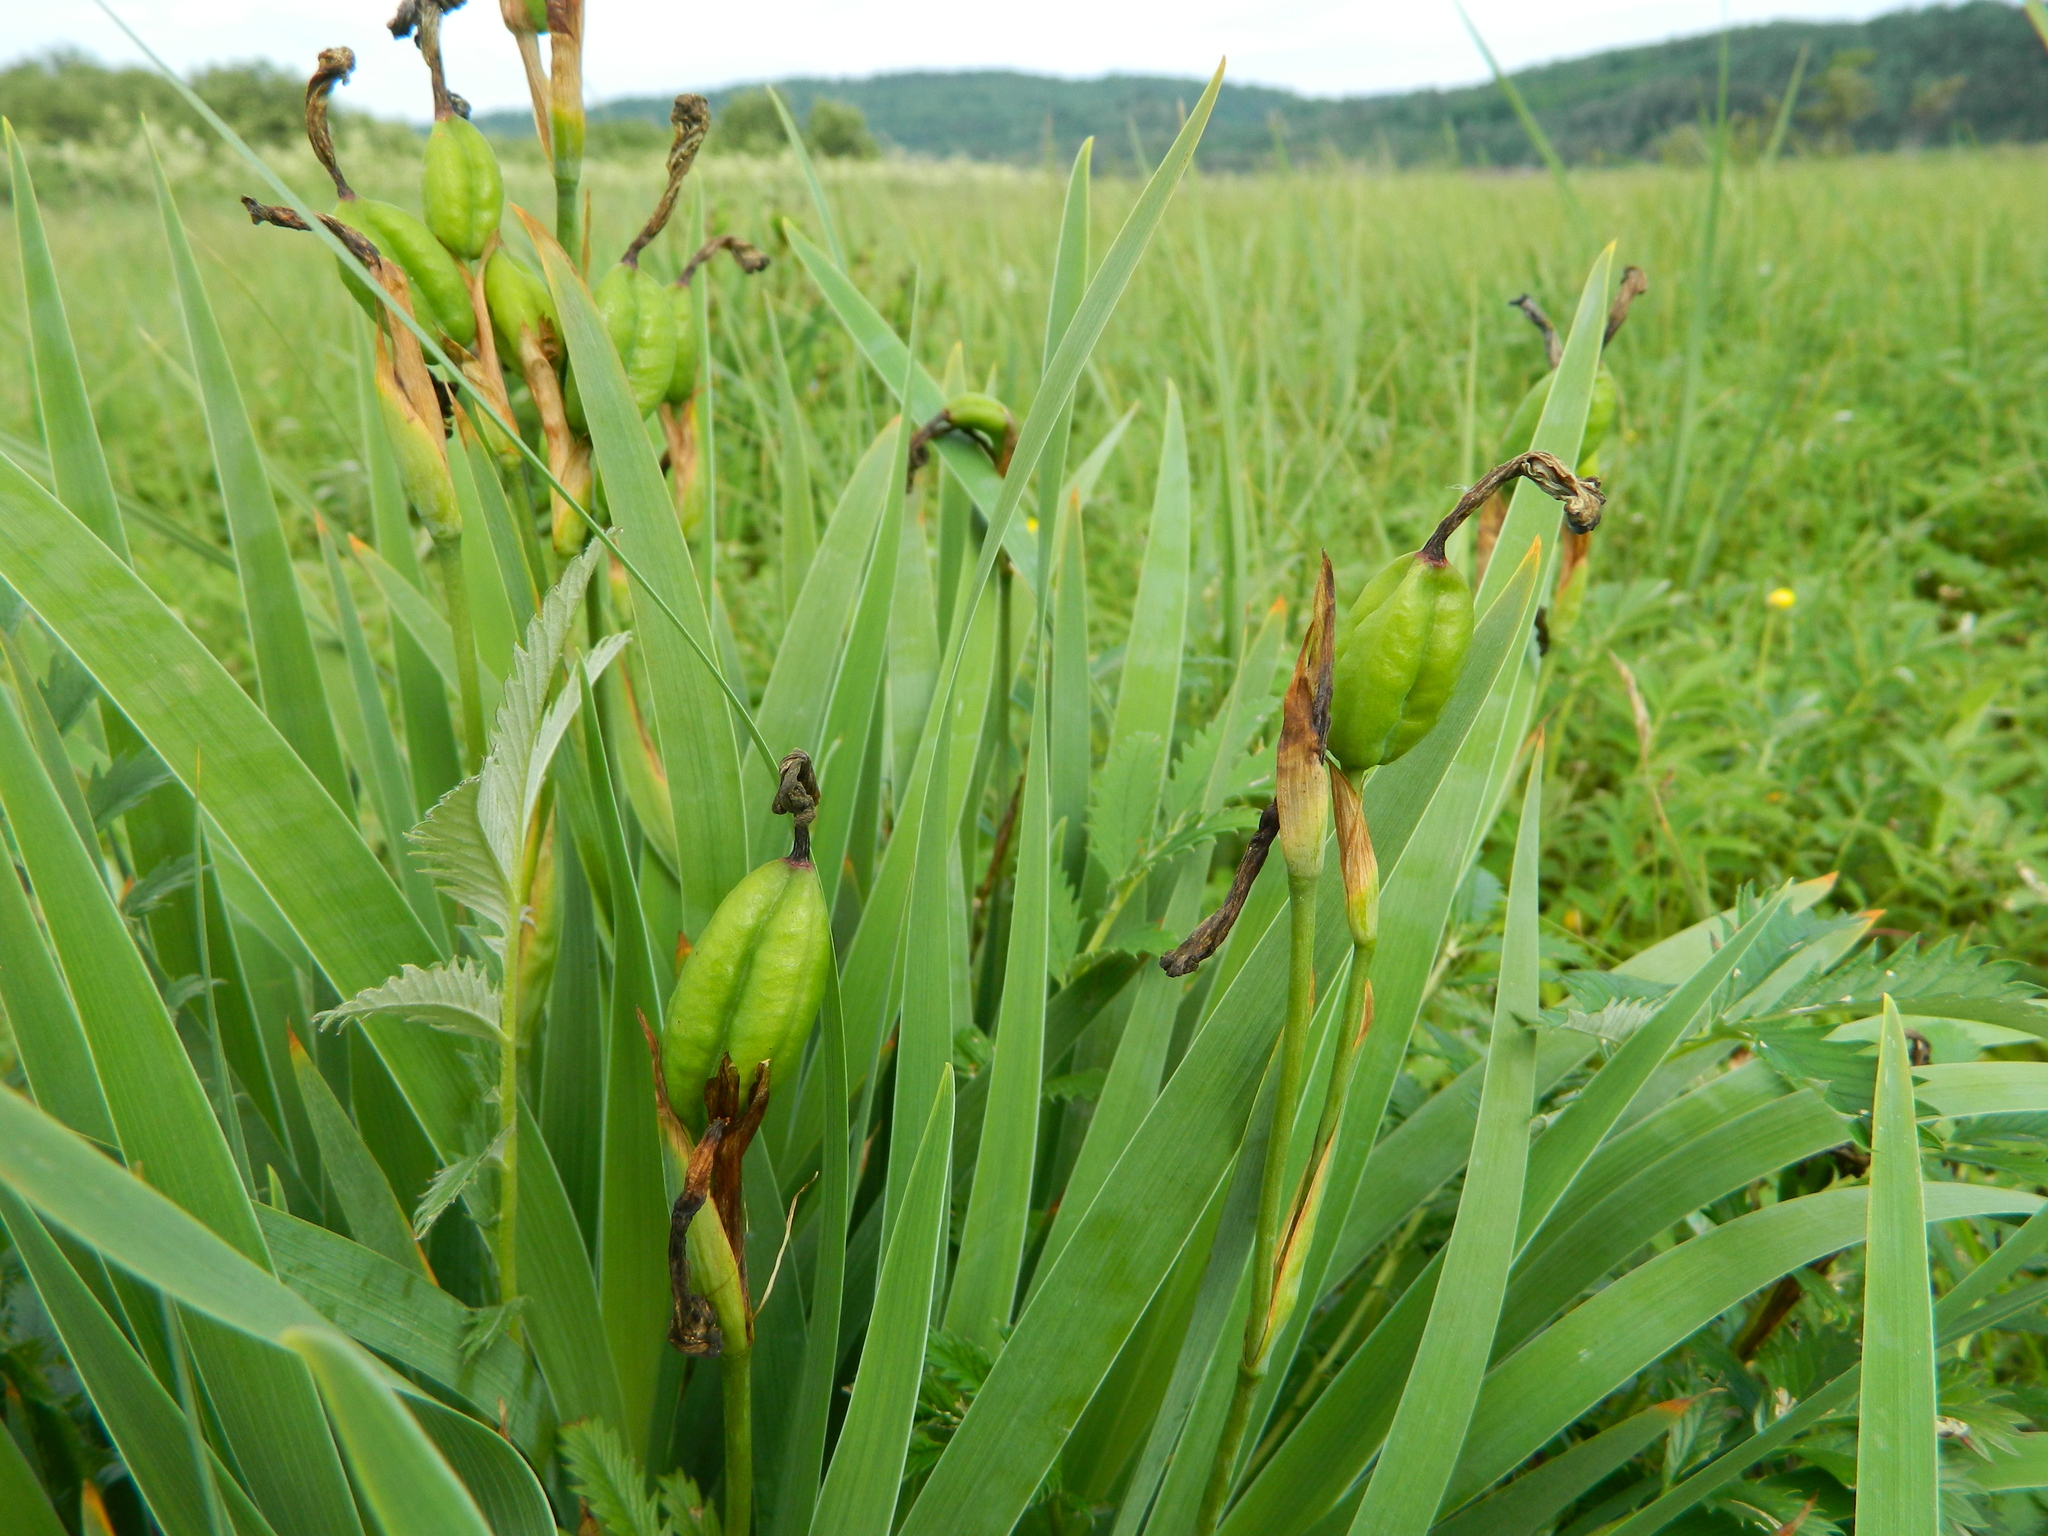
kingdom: Plantae
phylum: Tracheophyta
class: Liliopsida
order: Asparagales
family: Iridaceae
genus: Iris
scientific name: Iris hookeri
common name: Canada beach-head iris
